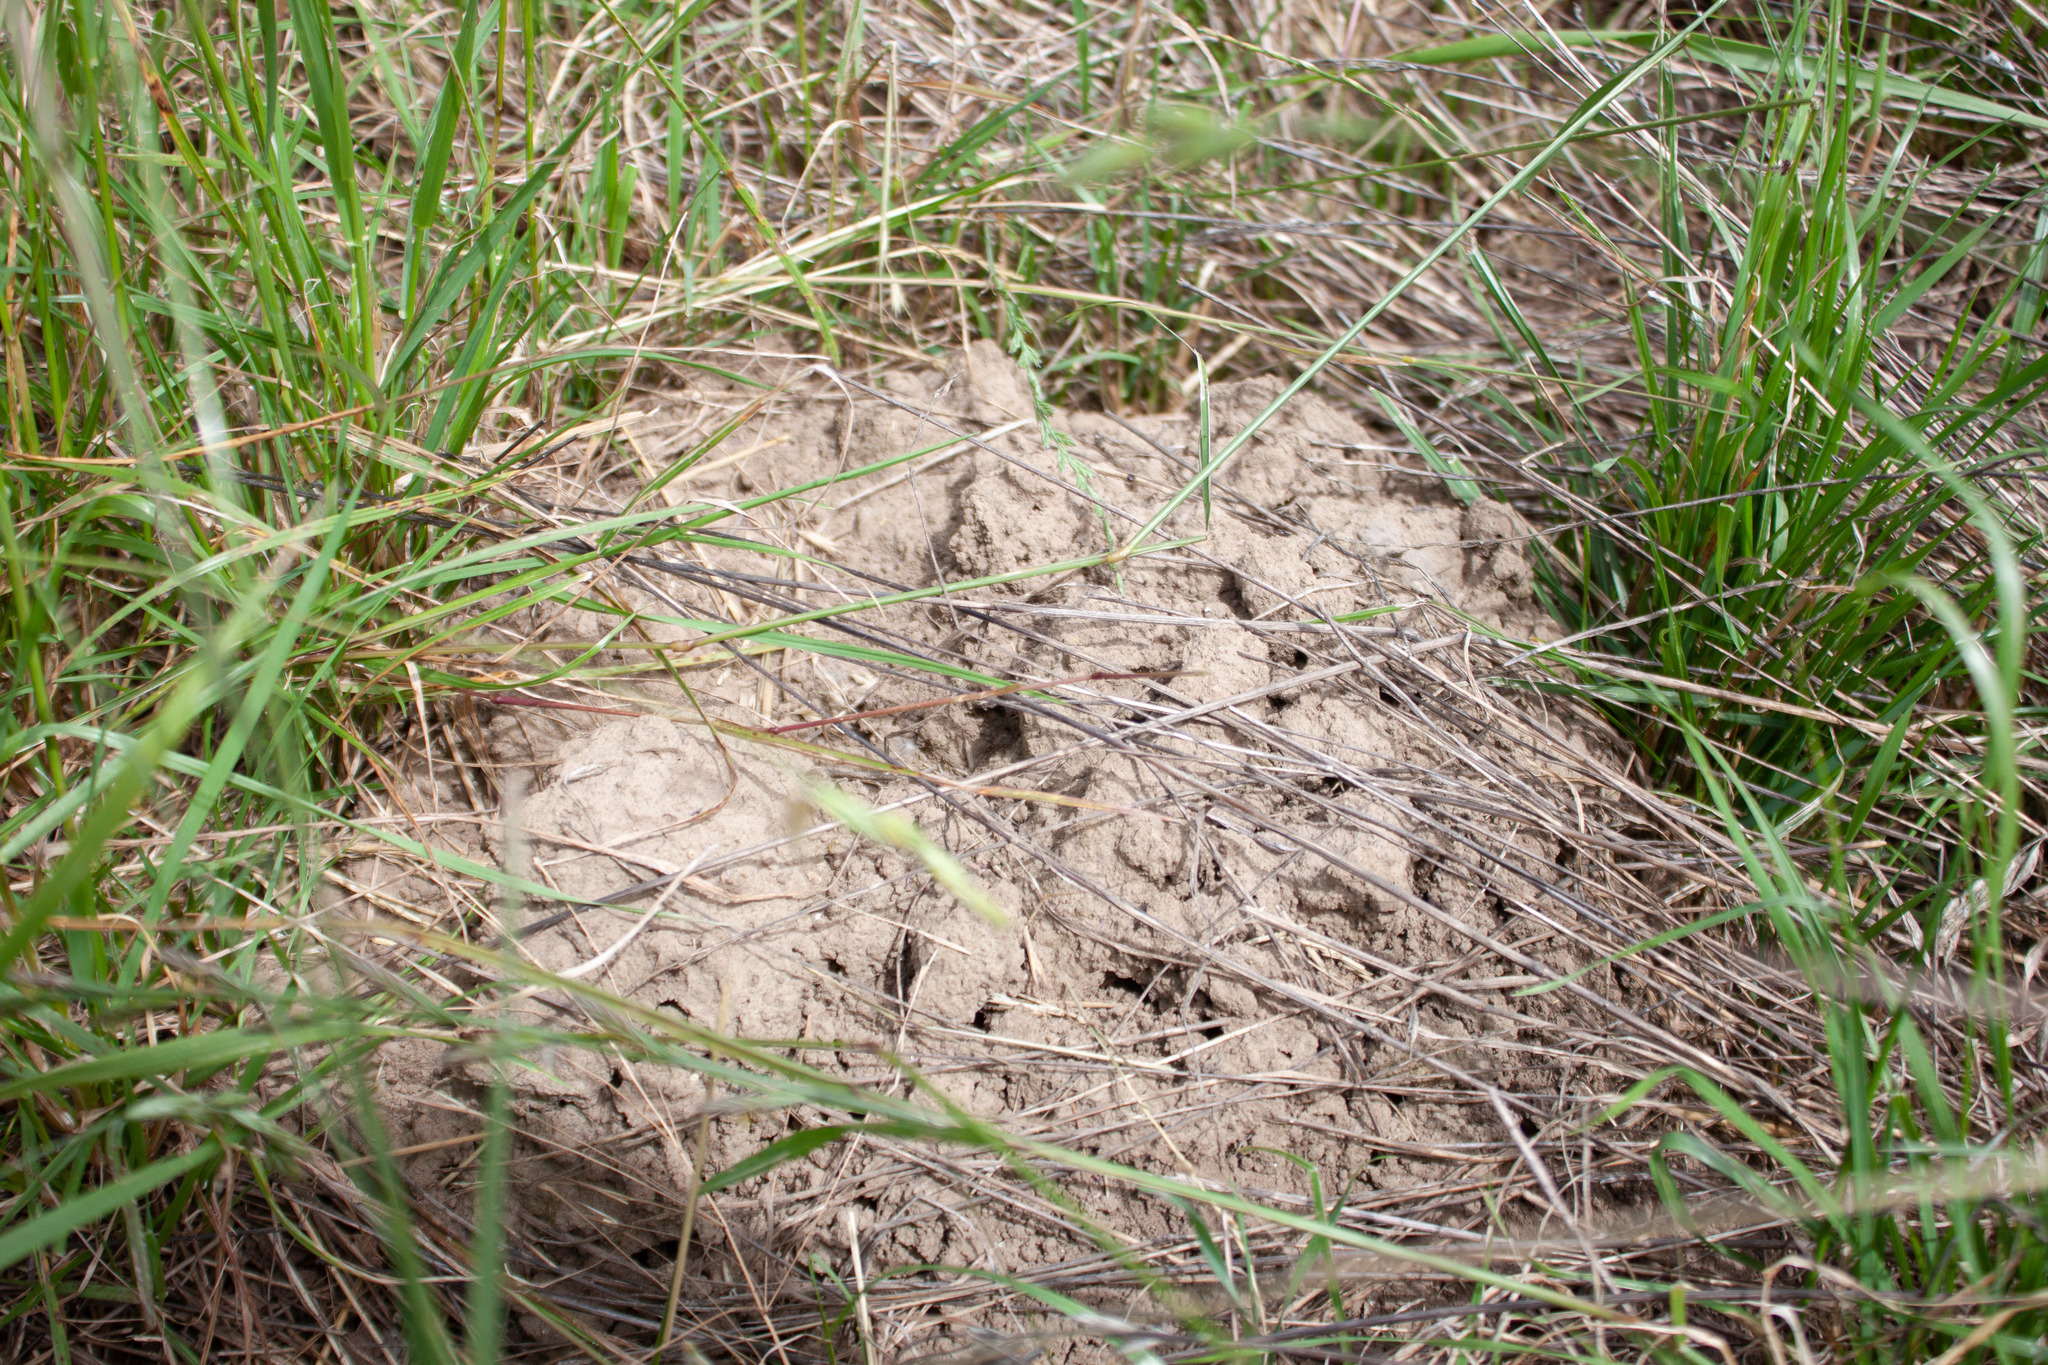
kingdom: Animalia
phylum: Arthropoda
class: Insecta
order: Hymenoptera
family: Formicidae
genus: Tetramorium
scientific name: Tetramorium immigrans
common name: Pavement ant
